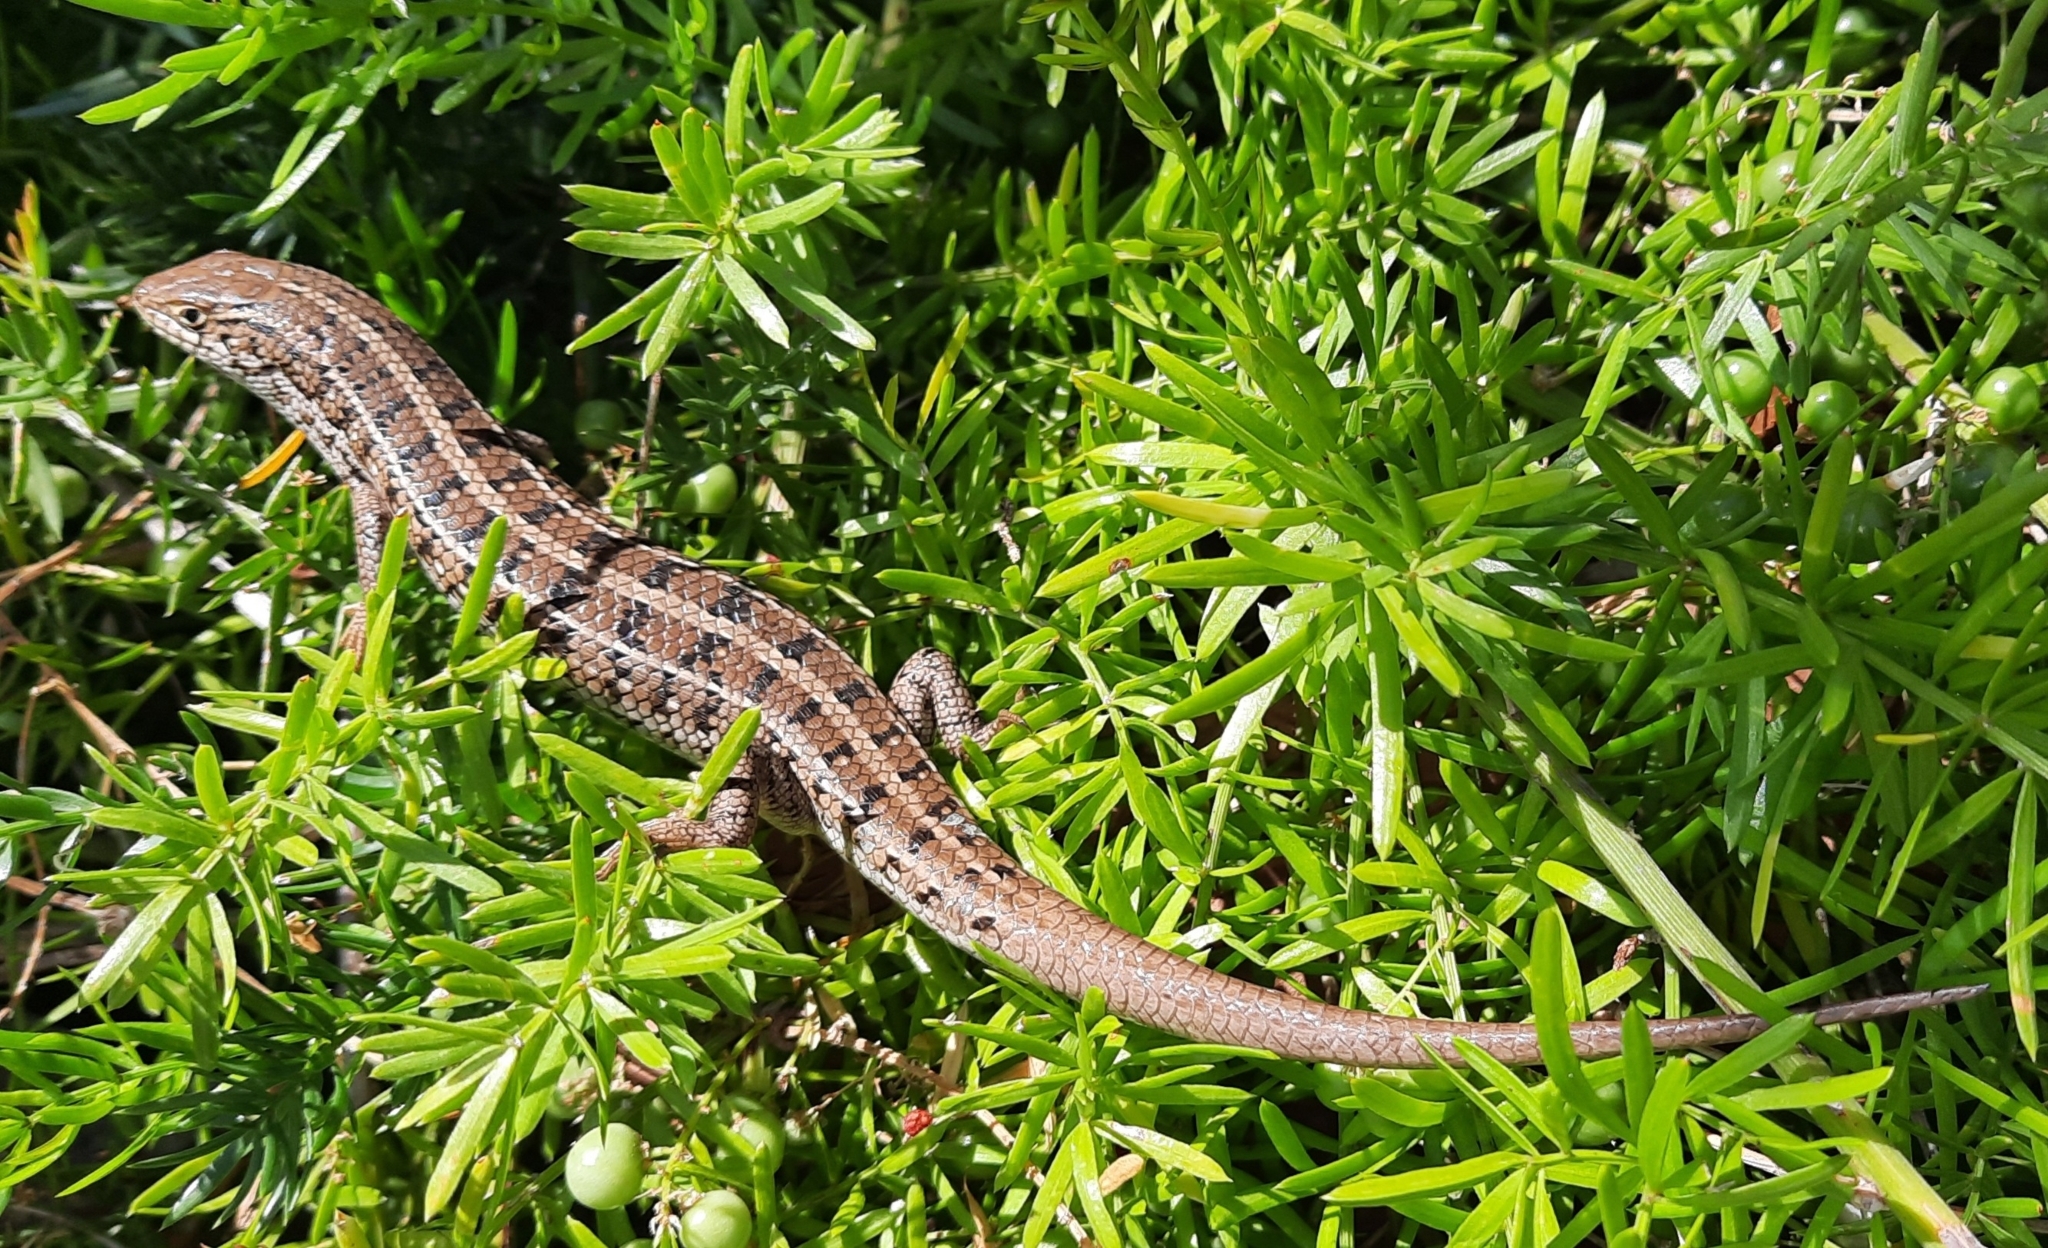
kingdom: Animalia
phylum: Chordata
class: Squamata
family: Scincidae
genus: Trachylepis
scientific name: Trachylepis capensis
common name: Cape skink
